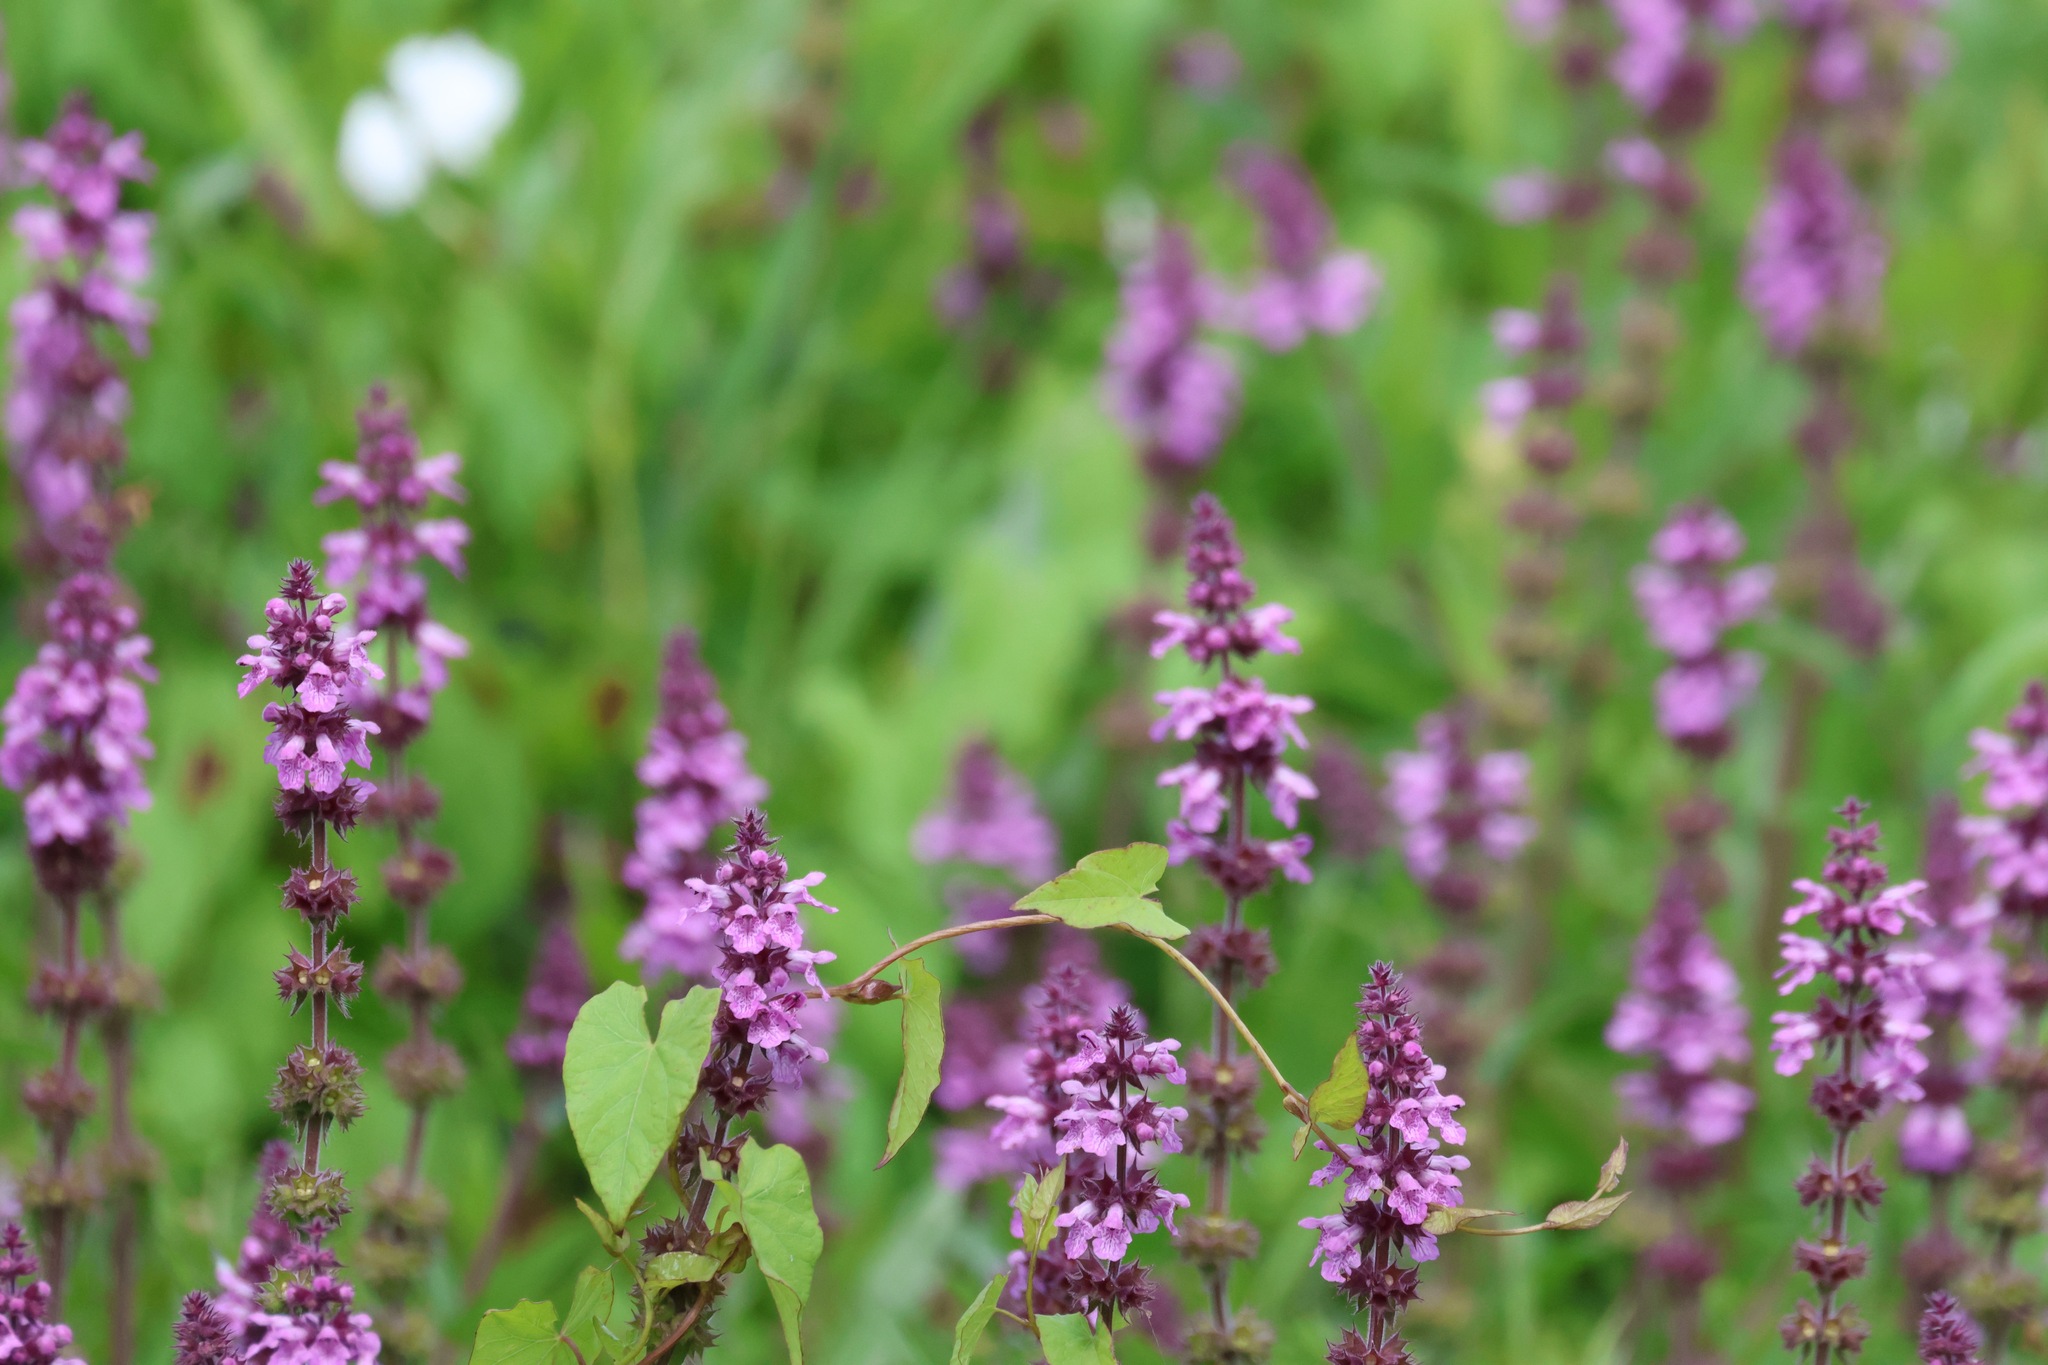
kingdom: Plantae
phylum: Tracheophyta
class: Magnoliopsida
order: Lamiales
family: Lamiaceae
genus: Stachys
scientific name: Stachys palustris
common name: Marsh woundwort
